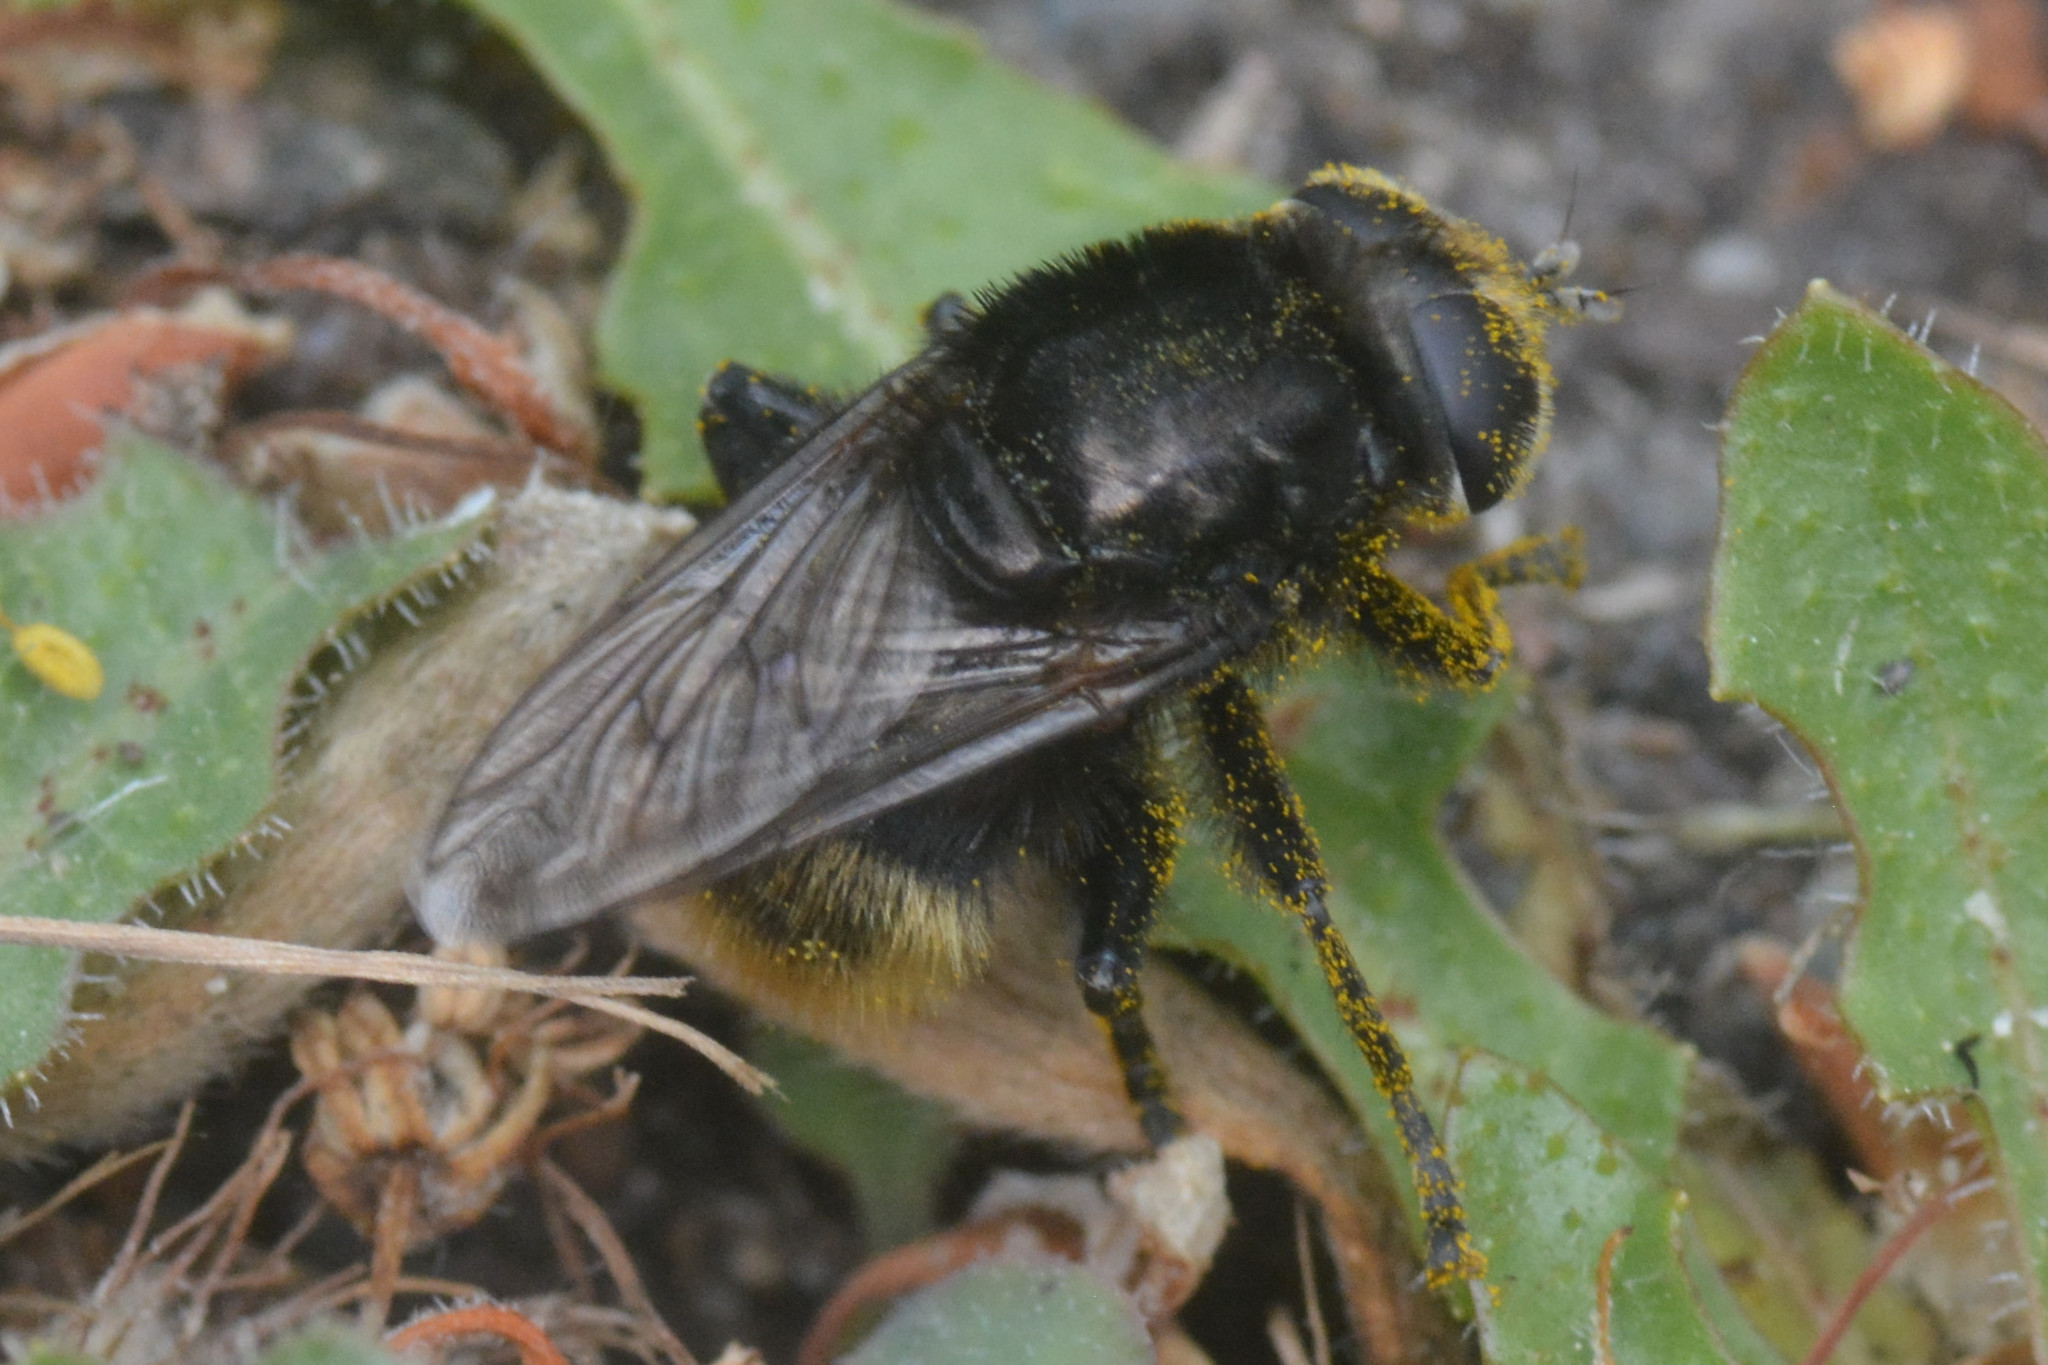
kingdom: Animalia
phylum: Arthropoda
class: Insecta
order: Diptera
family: Syrphidae
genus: Merodon
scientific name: Merodon equestris
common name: Greater bulb-fly
